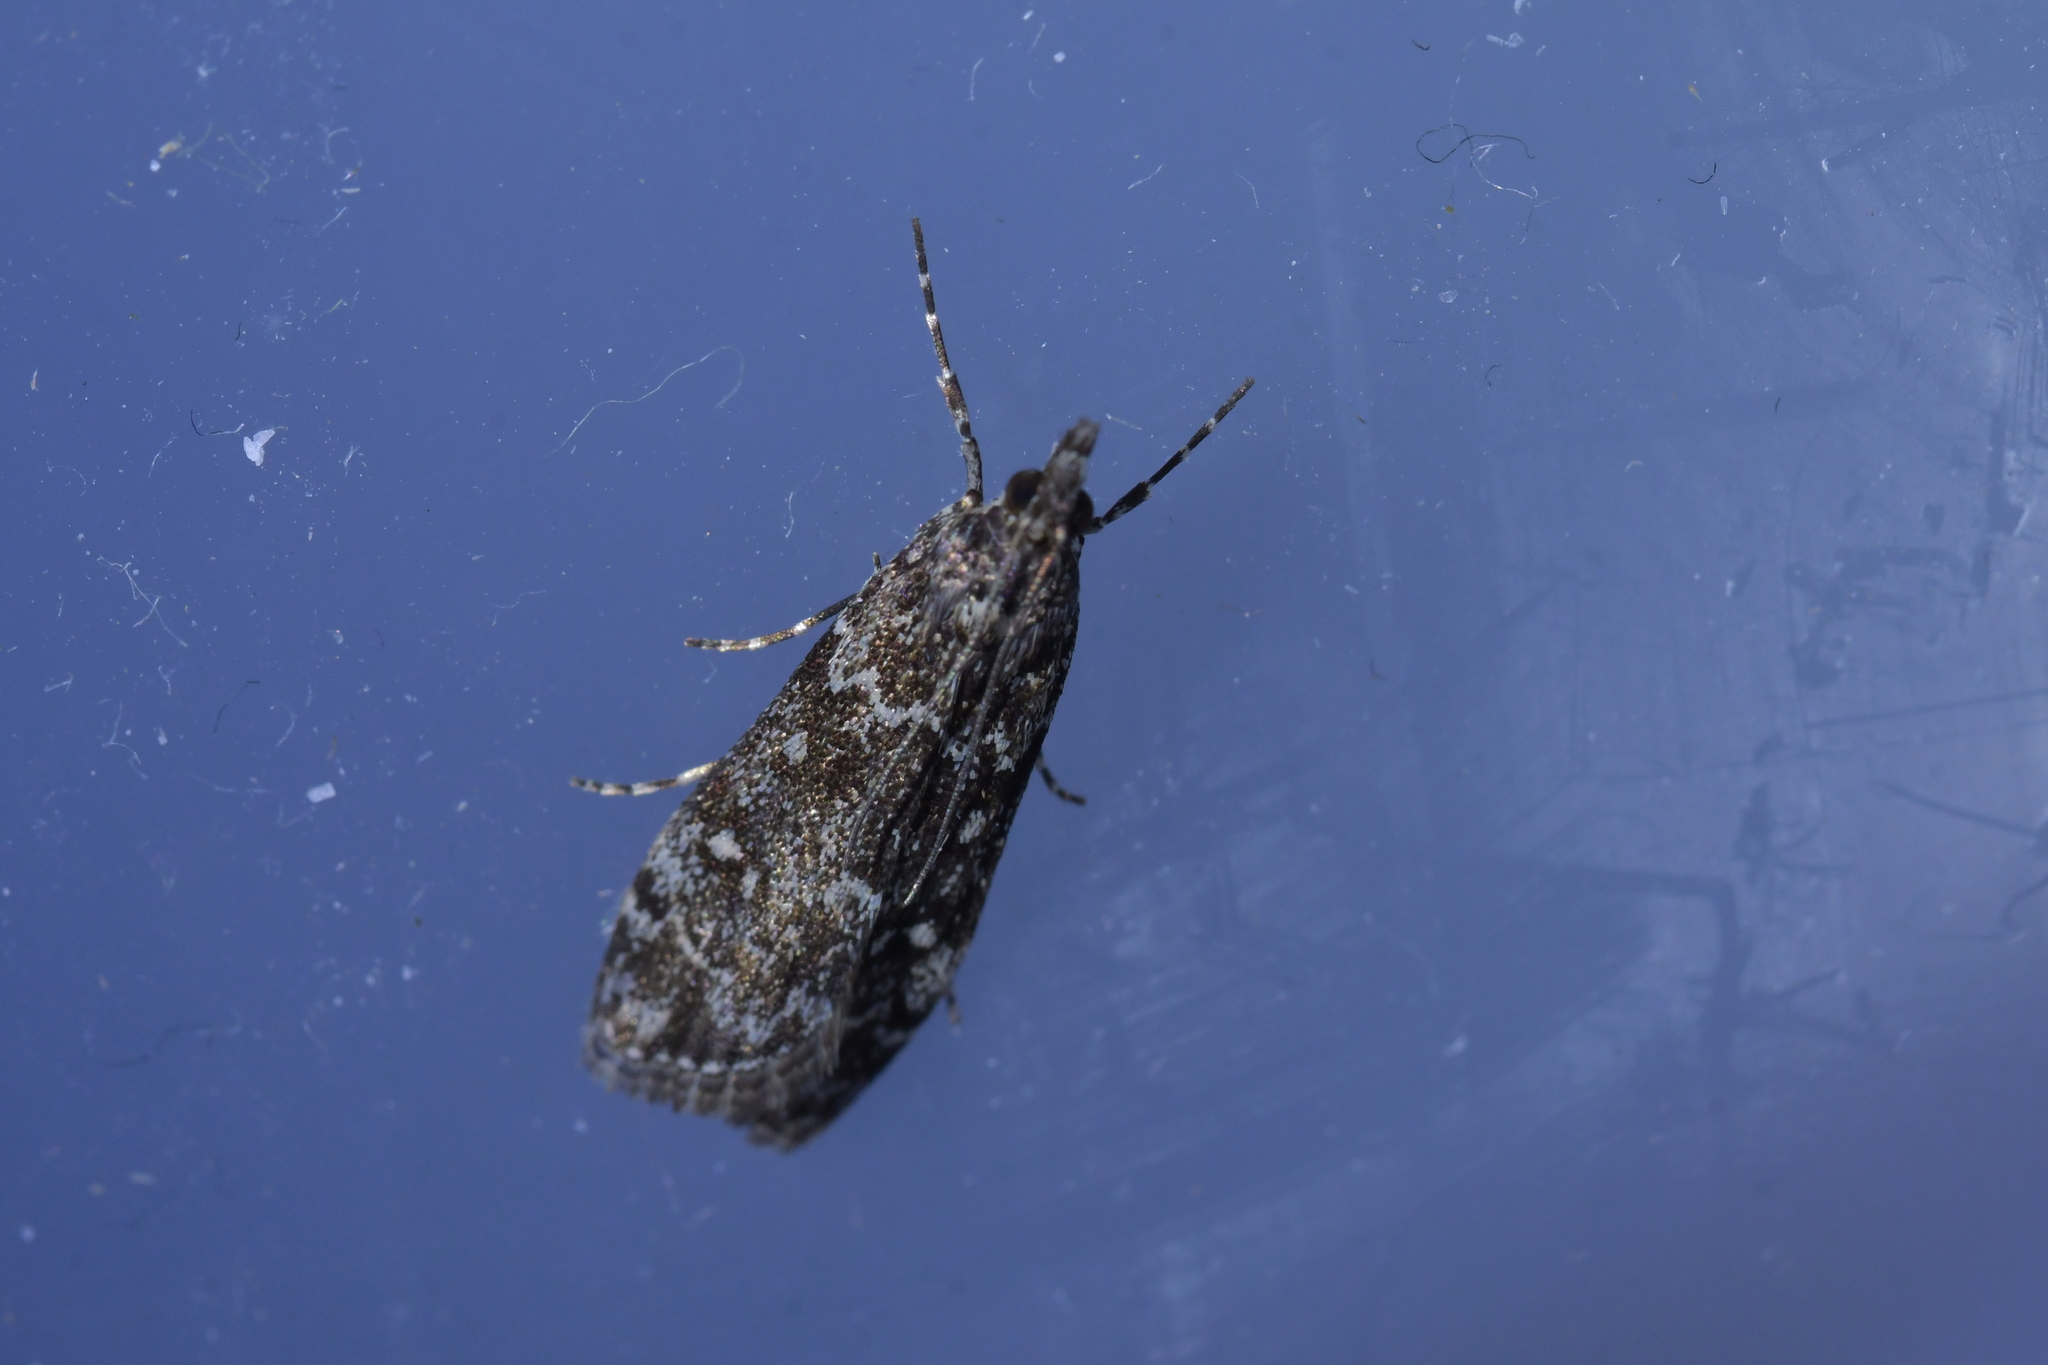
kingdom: Animalia
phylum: Arthropoda
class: Insecta
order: Lepidoptera
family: Crambidae
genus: Eudonia
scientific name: Eudonia philerga
